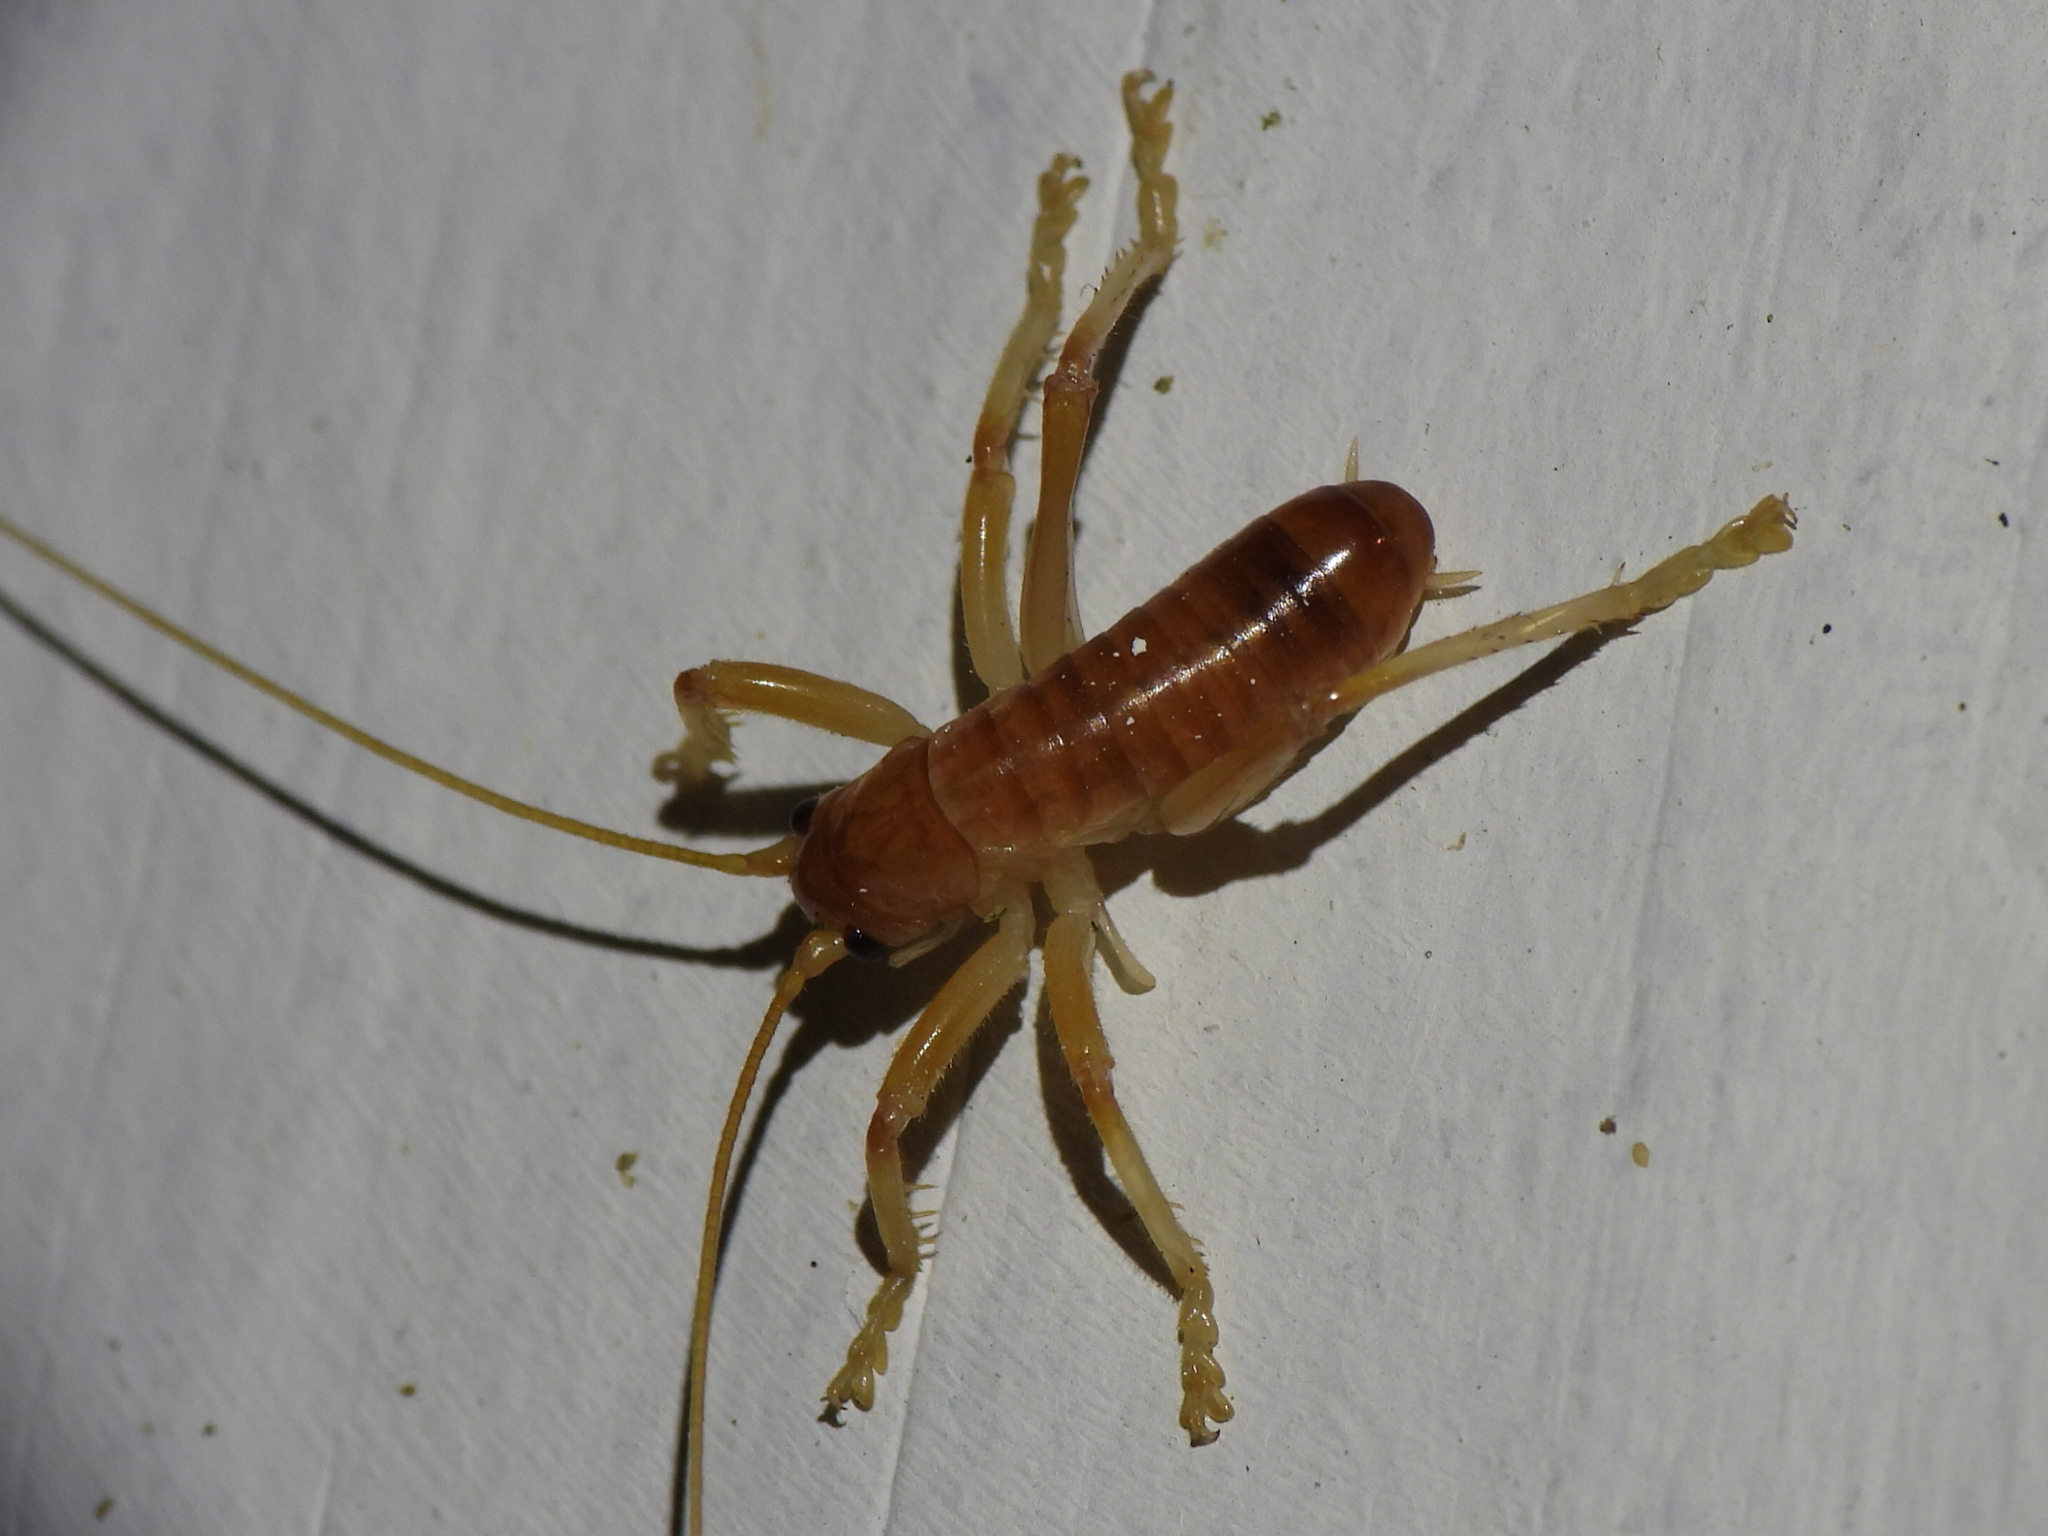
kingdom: Animalia
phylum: Arthropoda
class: Insecta
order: Orthoptera
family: Gryllacrididae
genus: Camptonotus
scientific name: Camptonotus carolinensis
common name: Carolina leaf-roller
